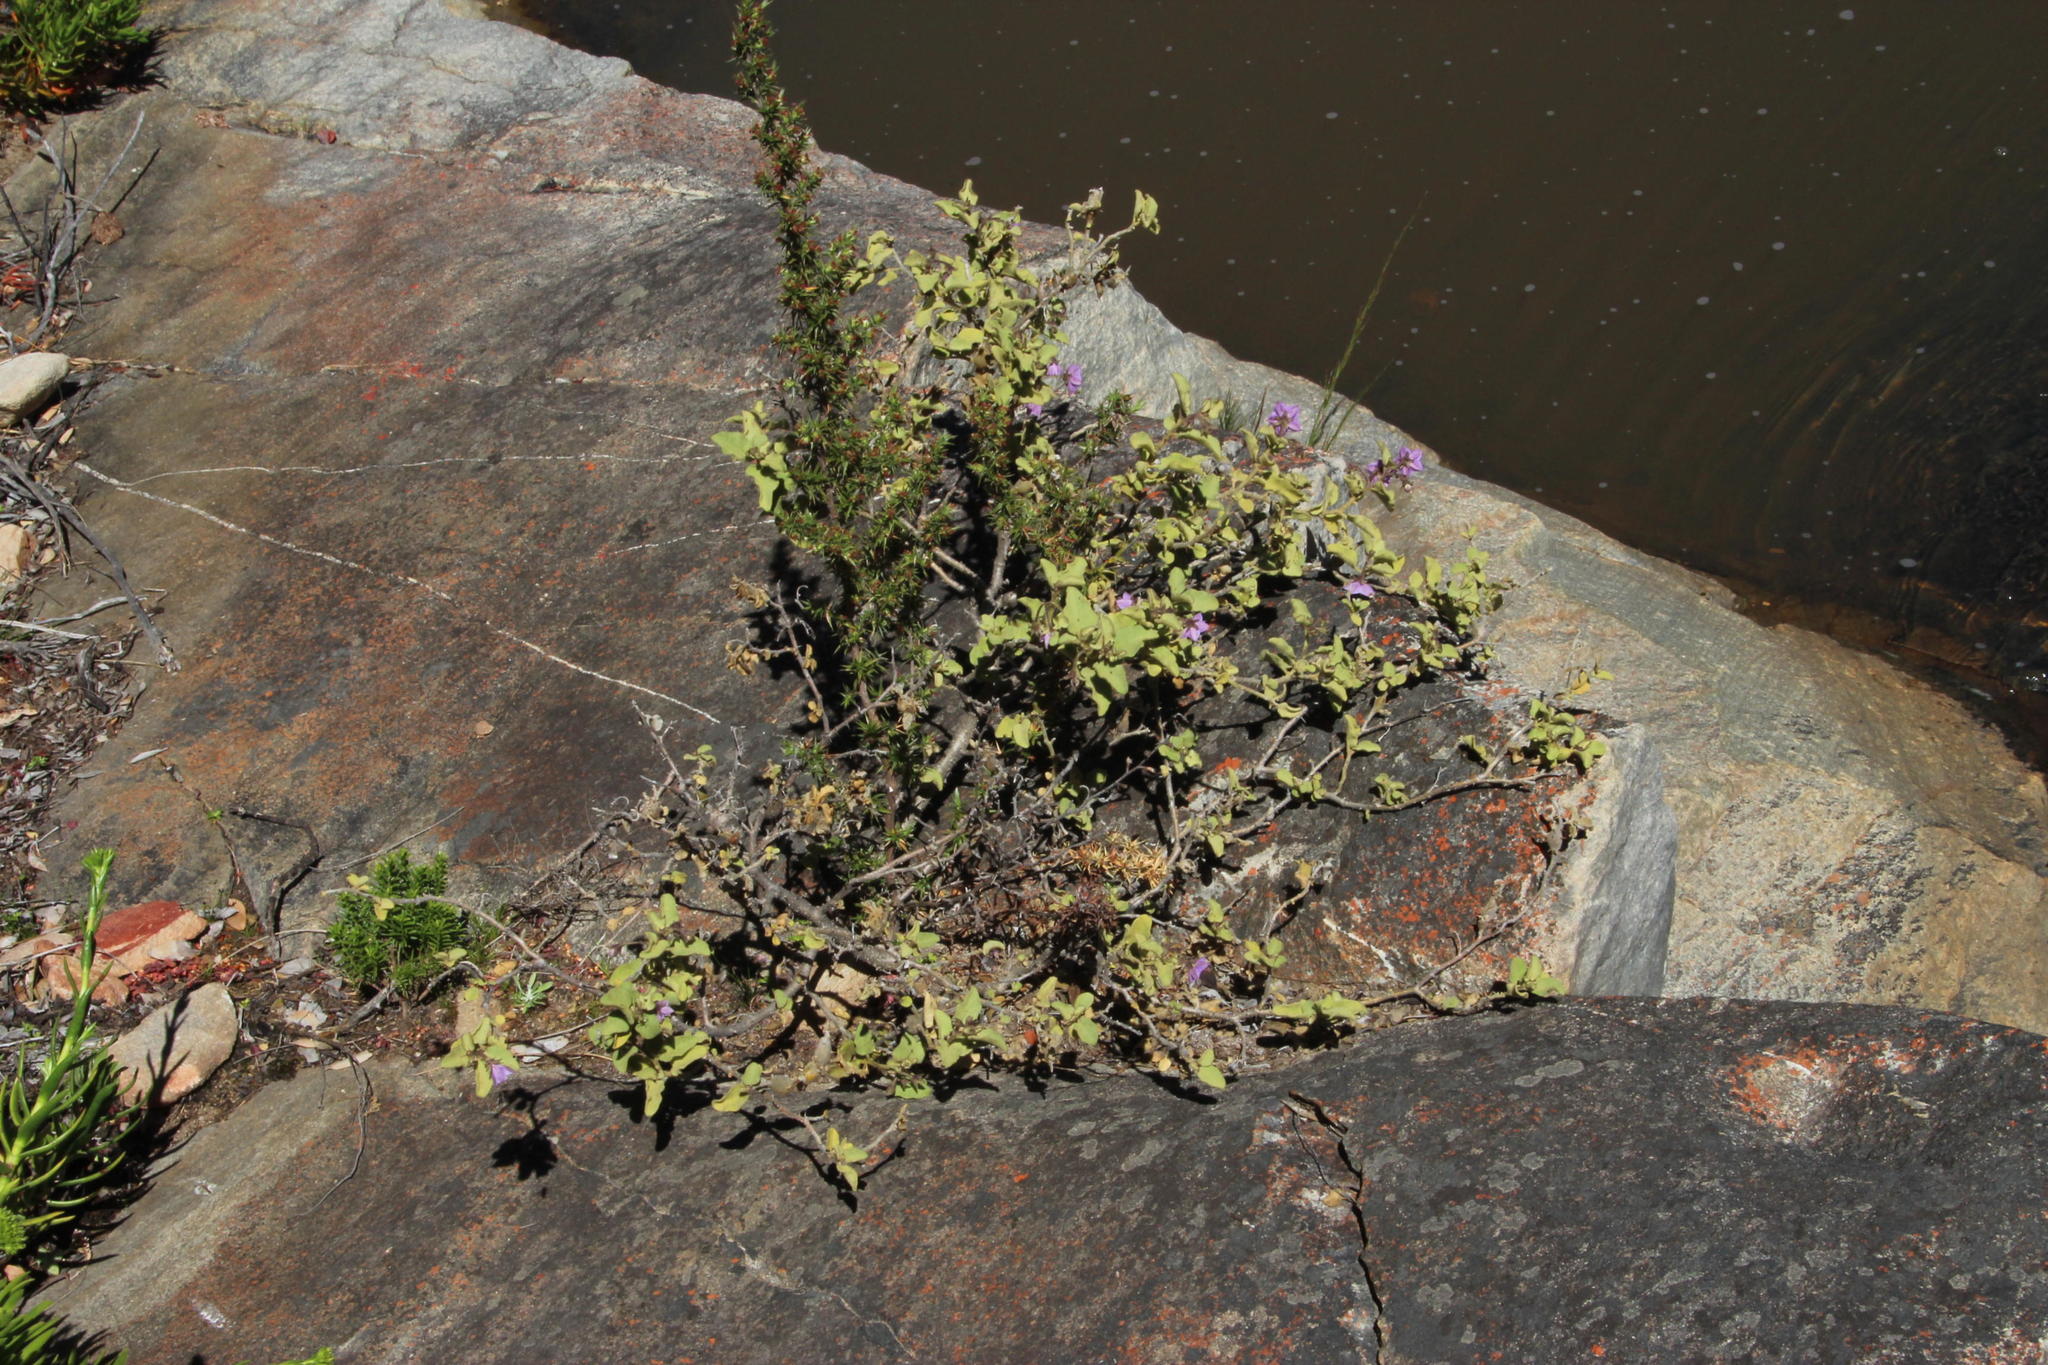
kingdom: Plantae
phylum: Tracheophyta
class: Magnoliopsida
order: Solanales
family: Solanaceae
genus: Solanum
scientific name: Solanum tomentosum
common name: Wild aubergine
